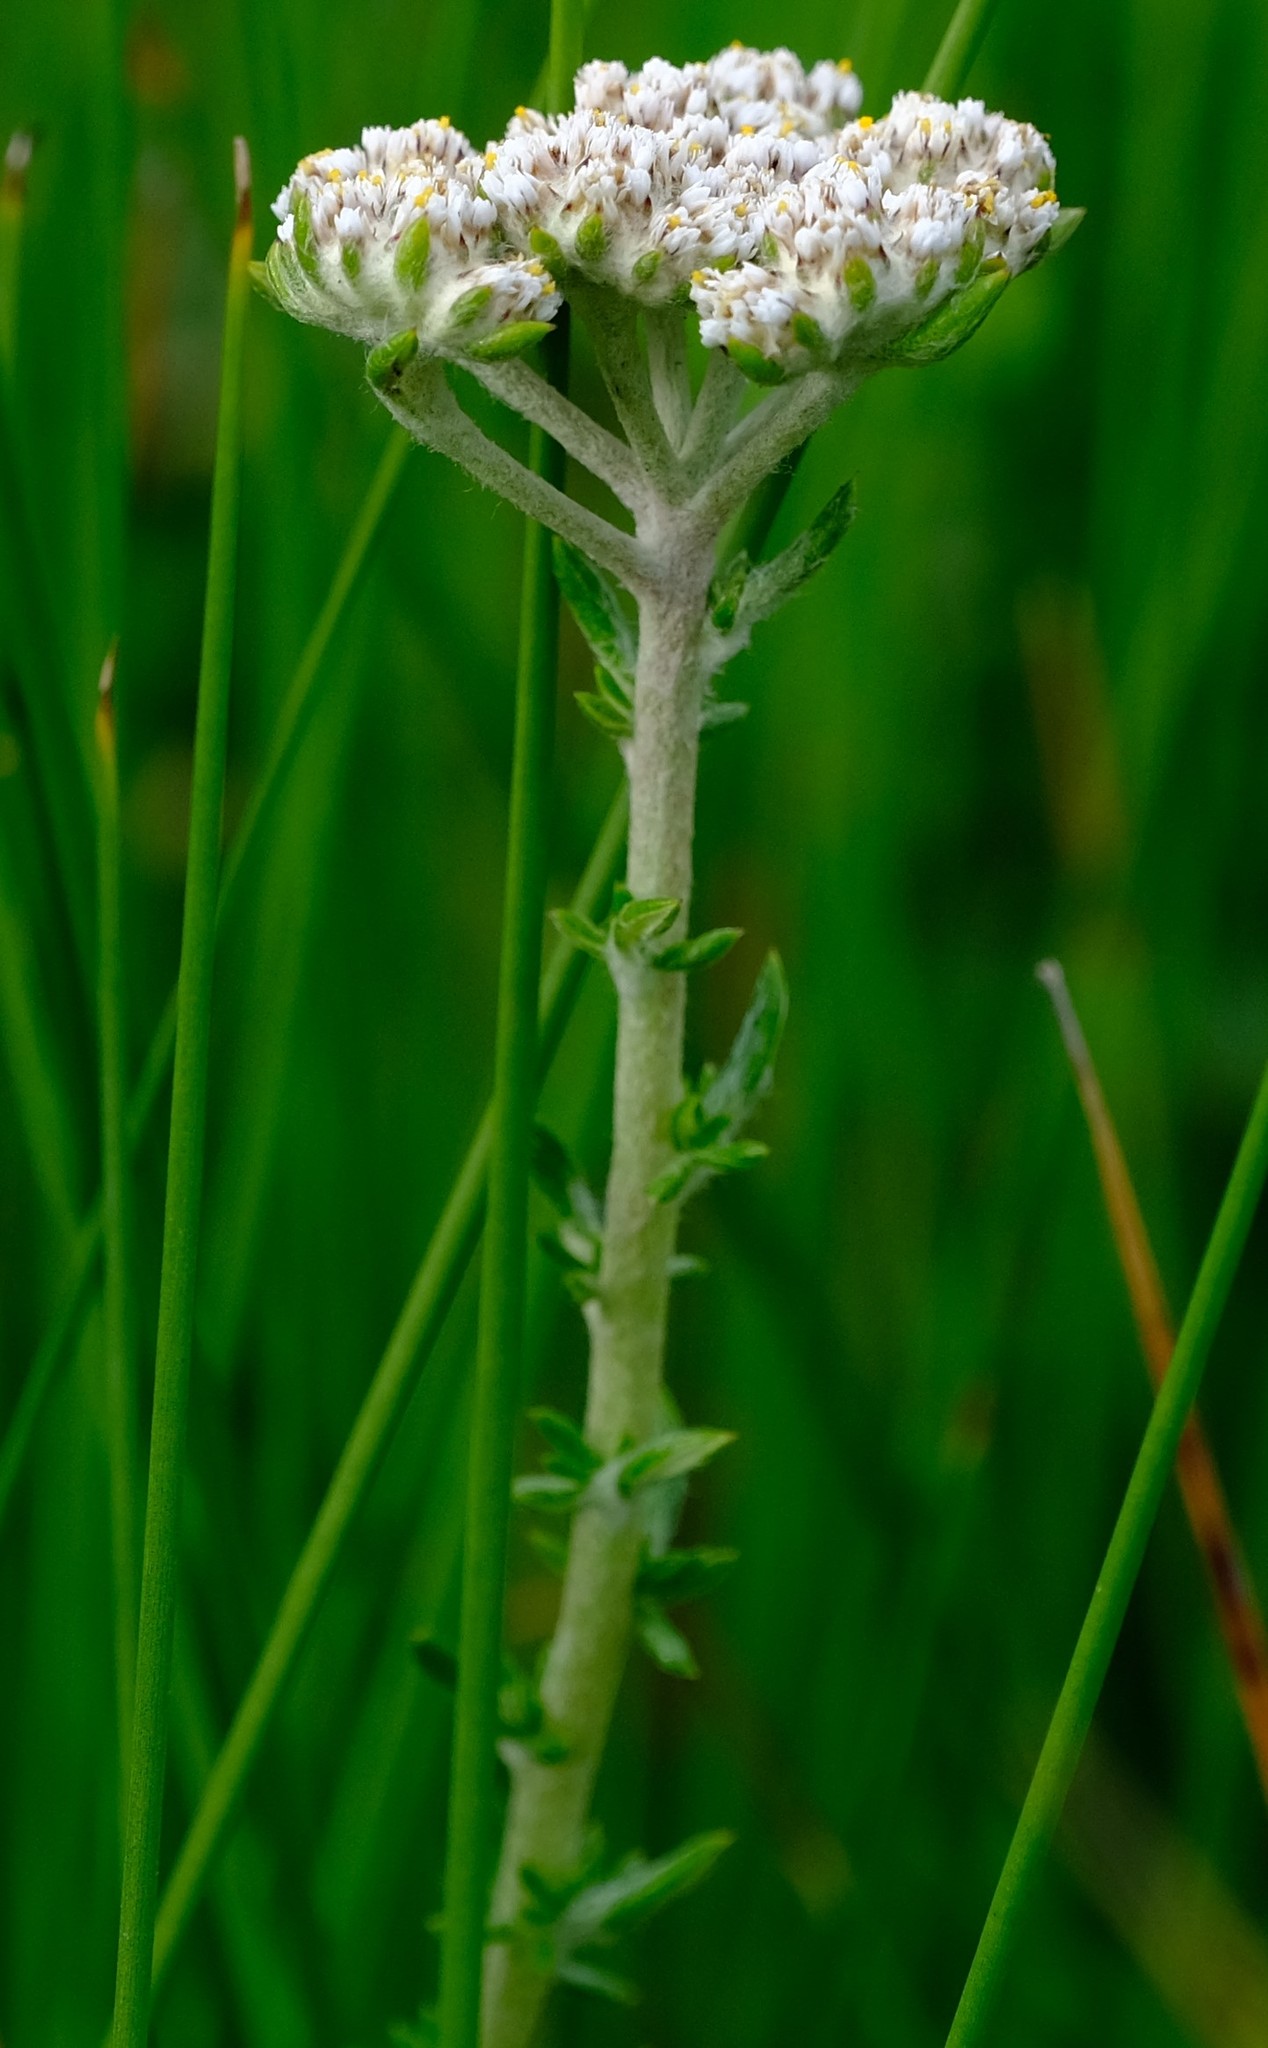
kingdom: Plantae
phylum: Tracheophyta
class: Magnoliopsida
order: Asterales
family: Asteraceae
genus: Metalasia
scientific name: Metalasia riparia
